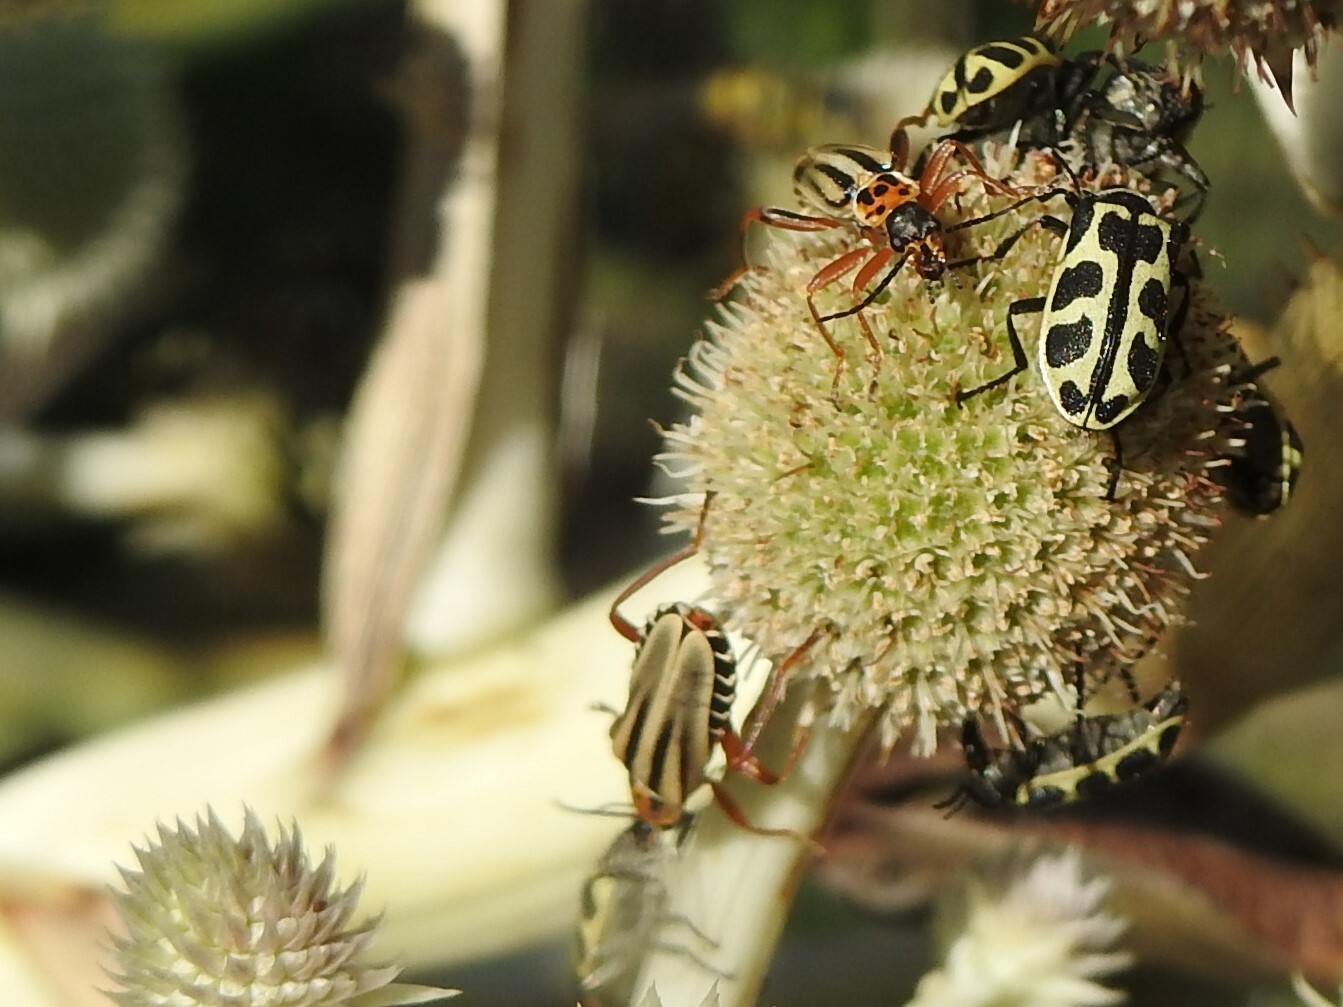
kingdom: Animalia
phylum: Arthropoda
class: Insecta
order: Coleoptera
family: Cantharidae
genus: Chauliognathus
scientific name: Chauliognathus
